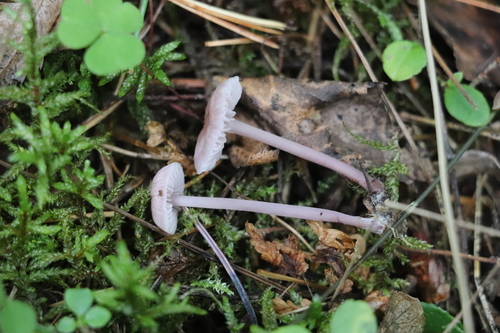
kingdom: Fungi
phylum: Basidiomycota
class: Agaricomycetes
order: Agaricales
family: Mycenaceae
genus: Mycena
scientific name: Mycena pura
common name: Lilac bonnet
